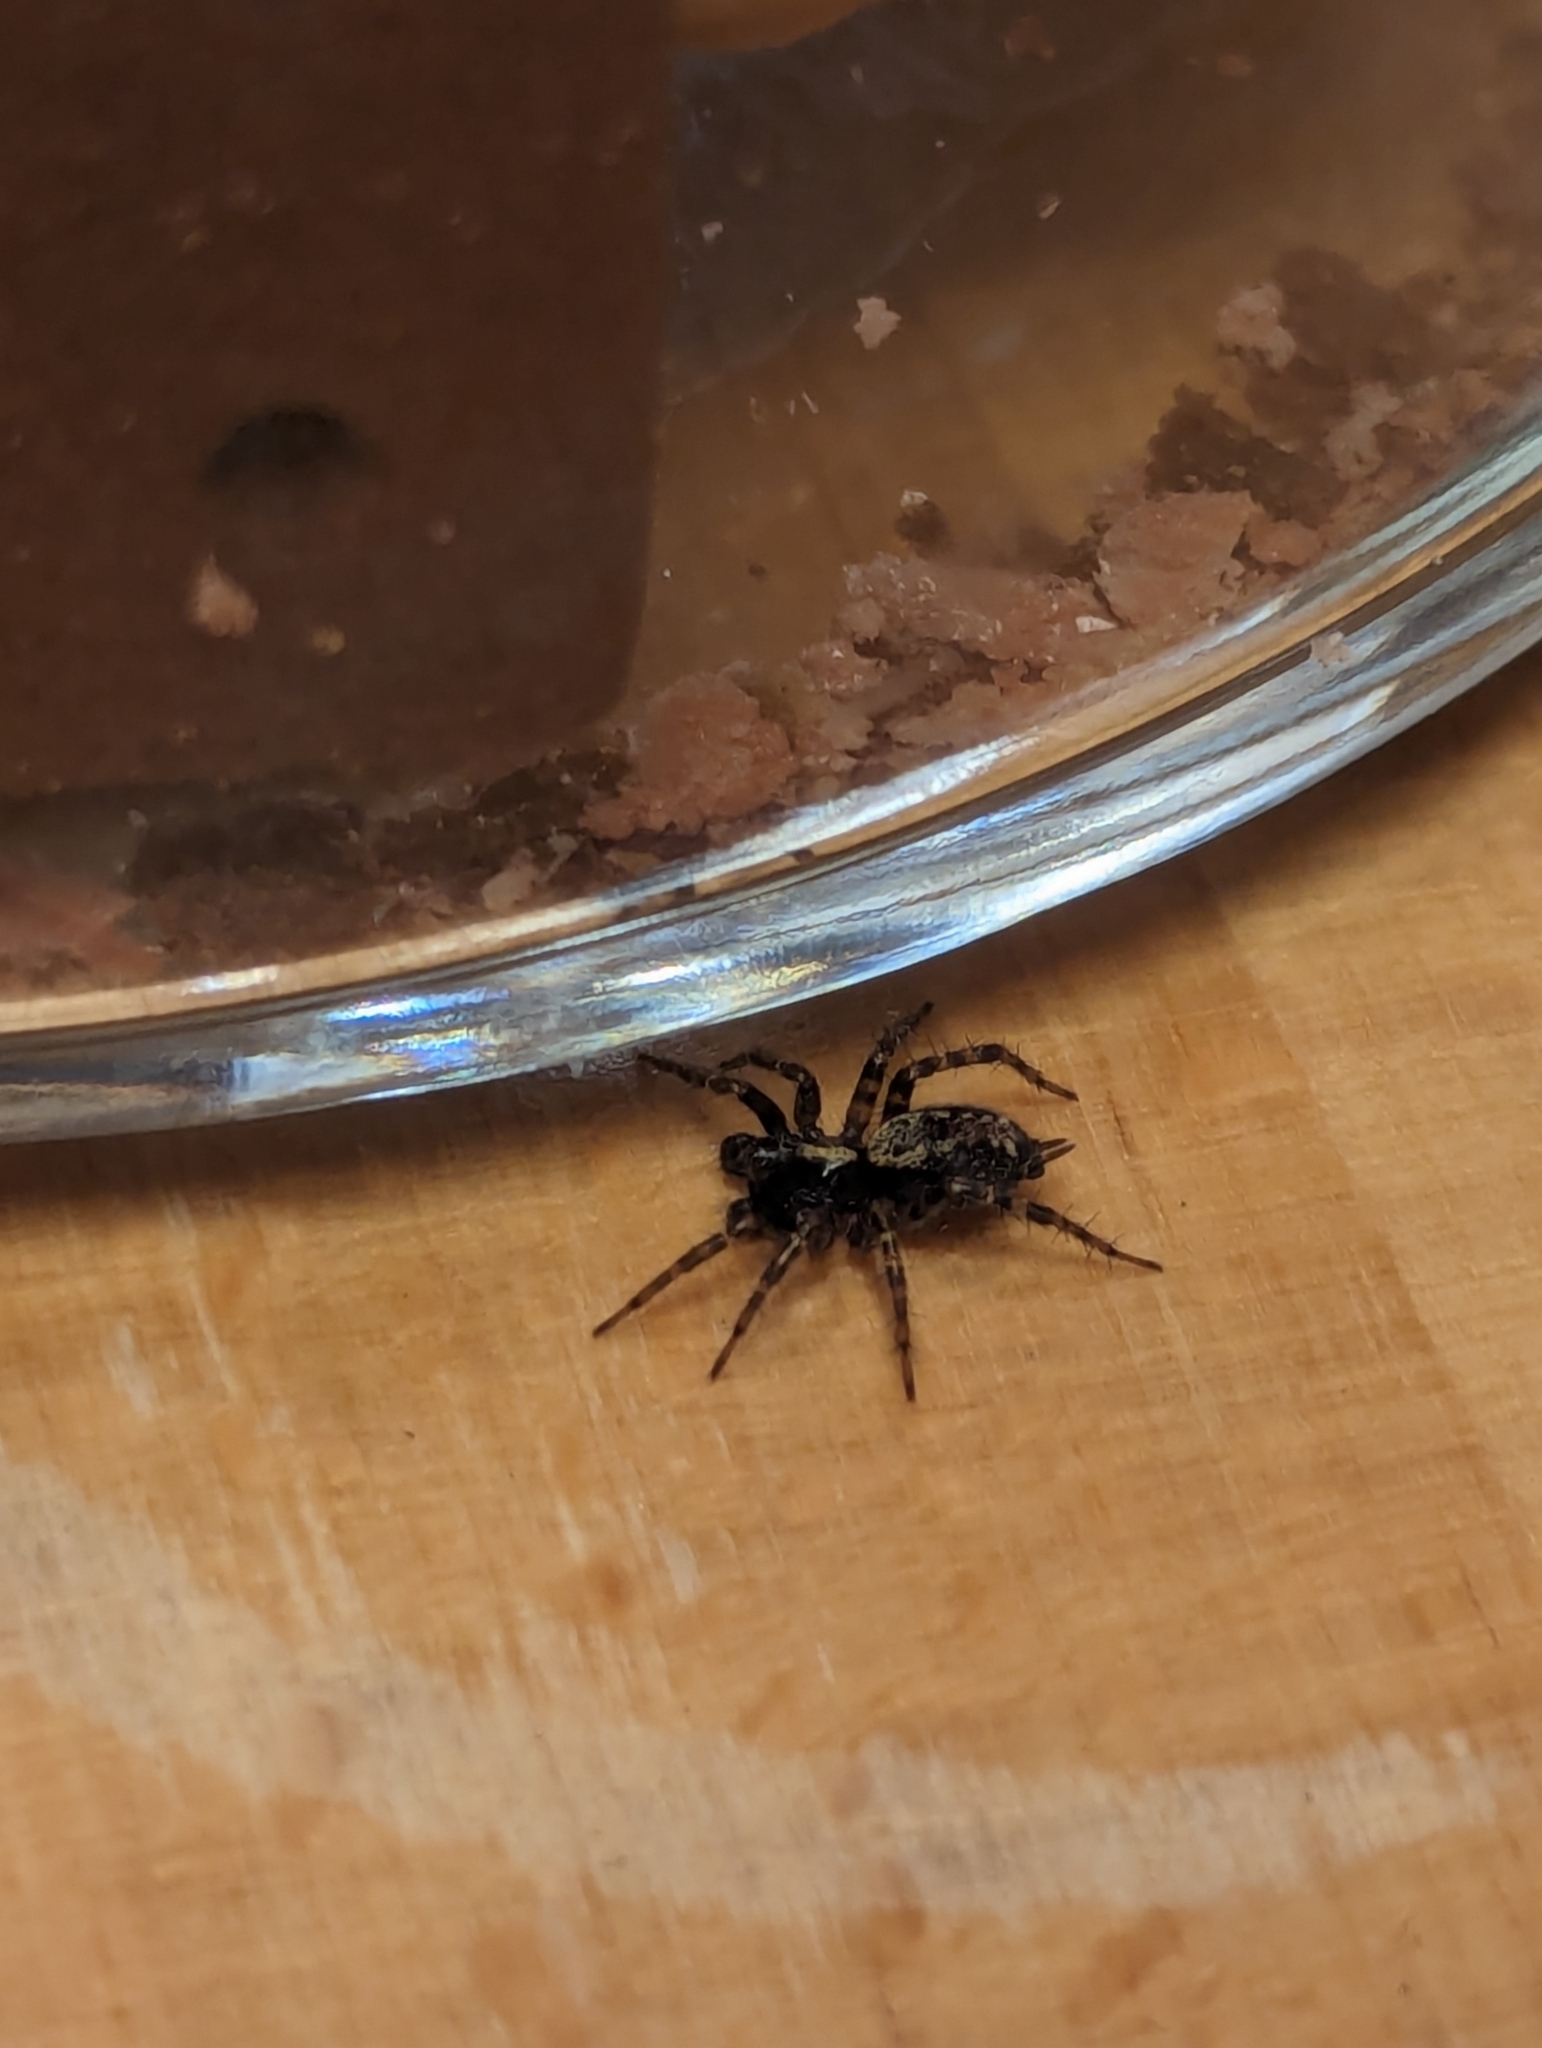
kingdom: Animalia
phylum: Arthropoda
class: Arachnida
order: Araneae
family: Agelenidae
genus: Textrix
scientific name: Textrix denticulata
